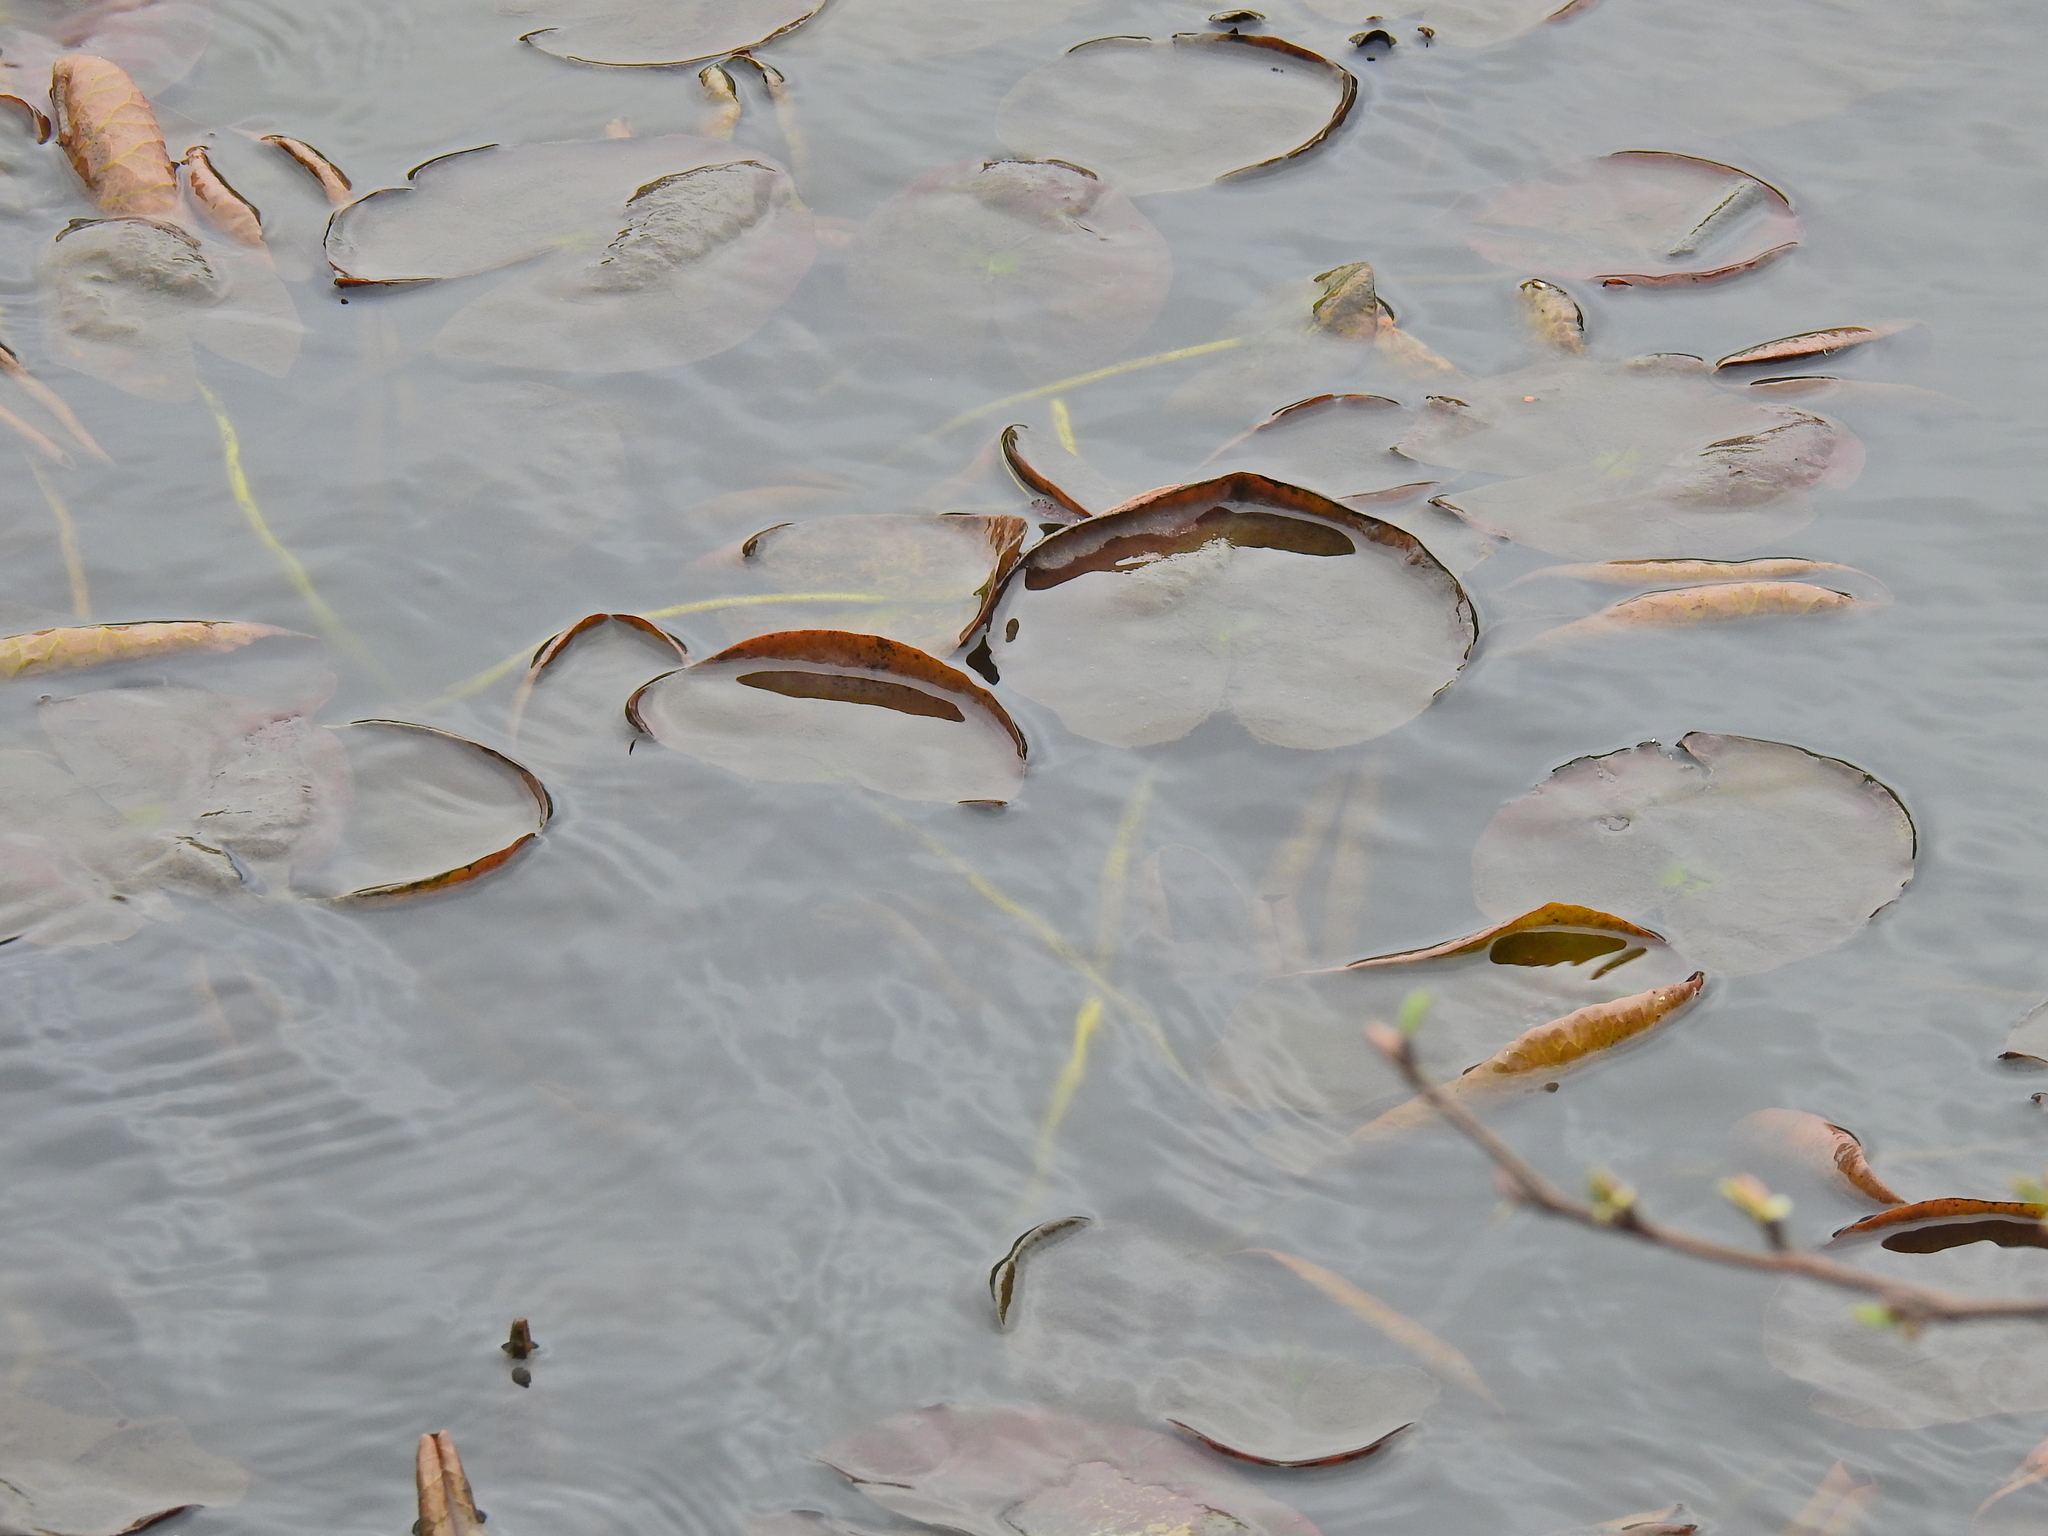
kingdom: Plantae
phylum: Tracheophyta
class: Magnoliopsida
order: Nymphaeales
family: Nymphaeaceae
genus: Nymphaea
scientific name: Nymphaea alba
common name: White water-lily
